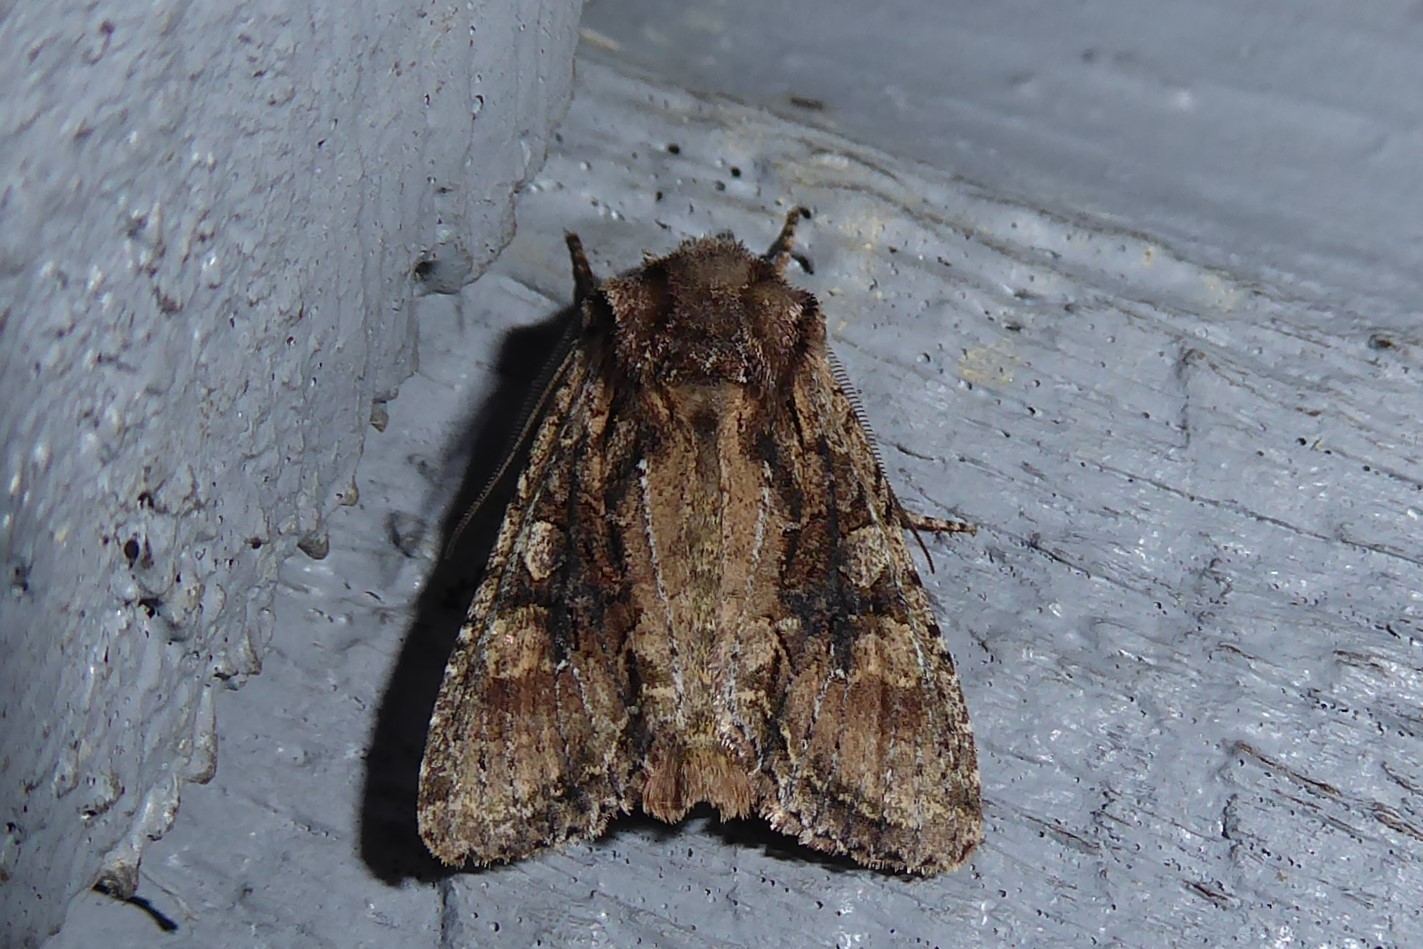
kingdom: Animalia
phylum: Arthropoda
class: Insecta
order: Lepidoptera
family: Noctuidae
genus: Ichneutica
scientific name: Ichneutica mutans
